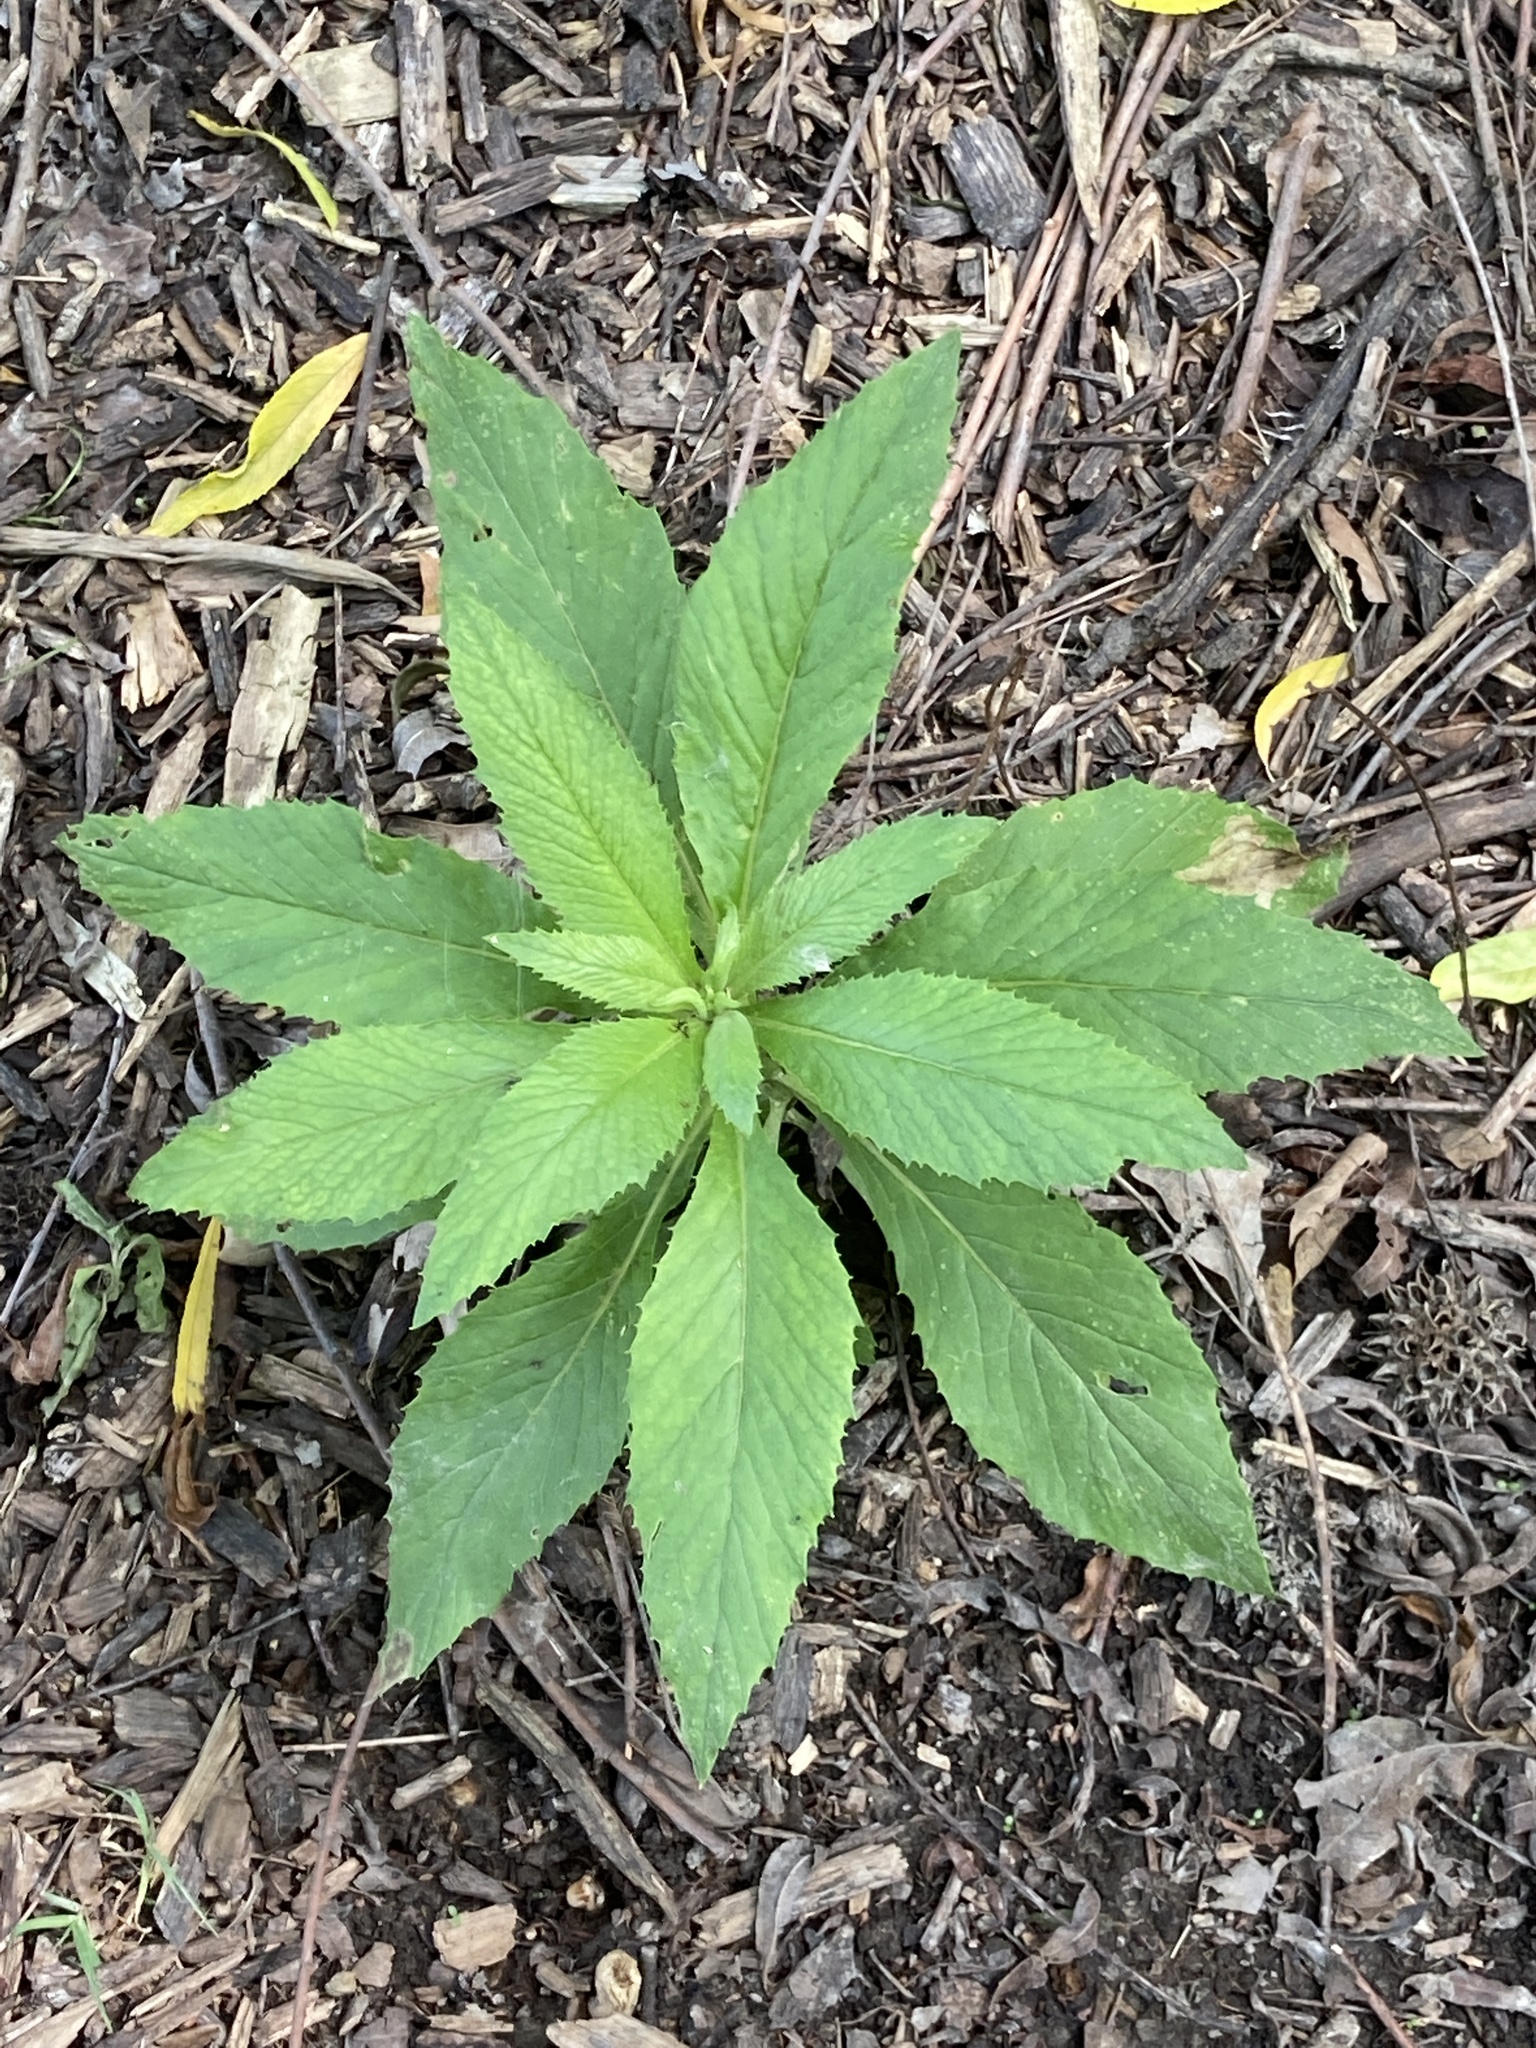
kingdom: Plantae
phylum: Tracheophyta
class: Magnoliopsida
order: Asterales
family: Asteraceae
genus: Erechtites
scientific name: Erechtites hieraciifolius
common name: American burnweed
